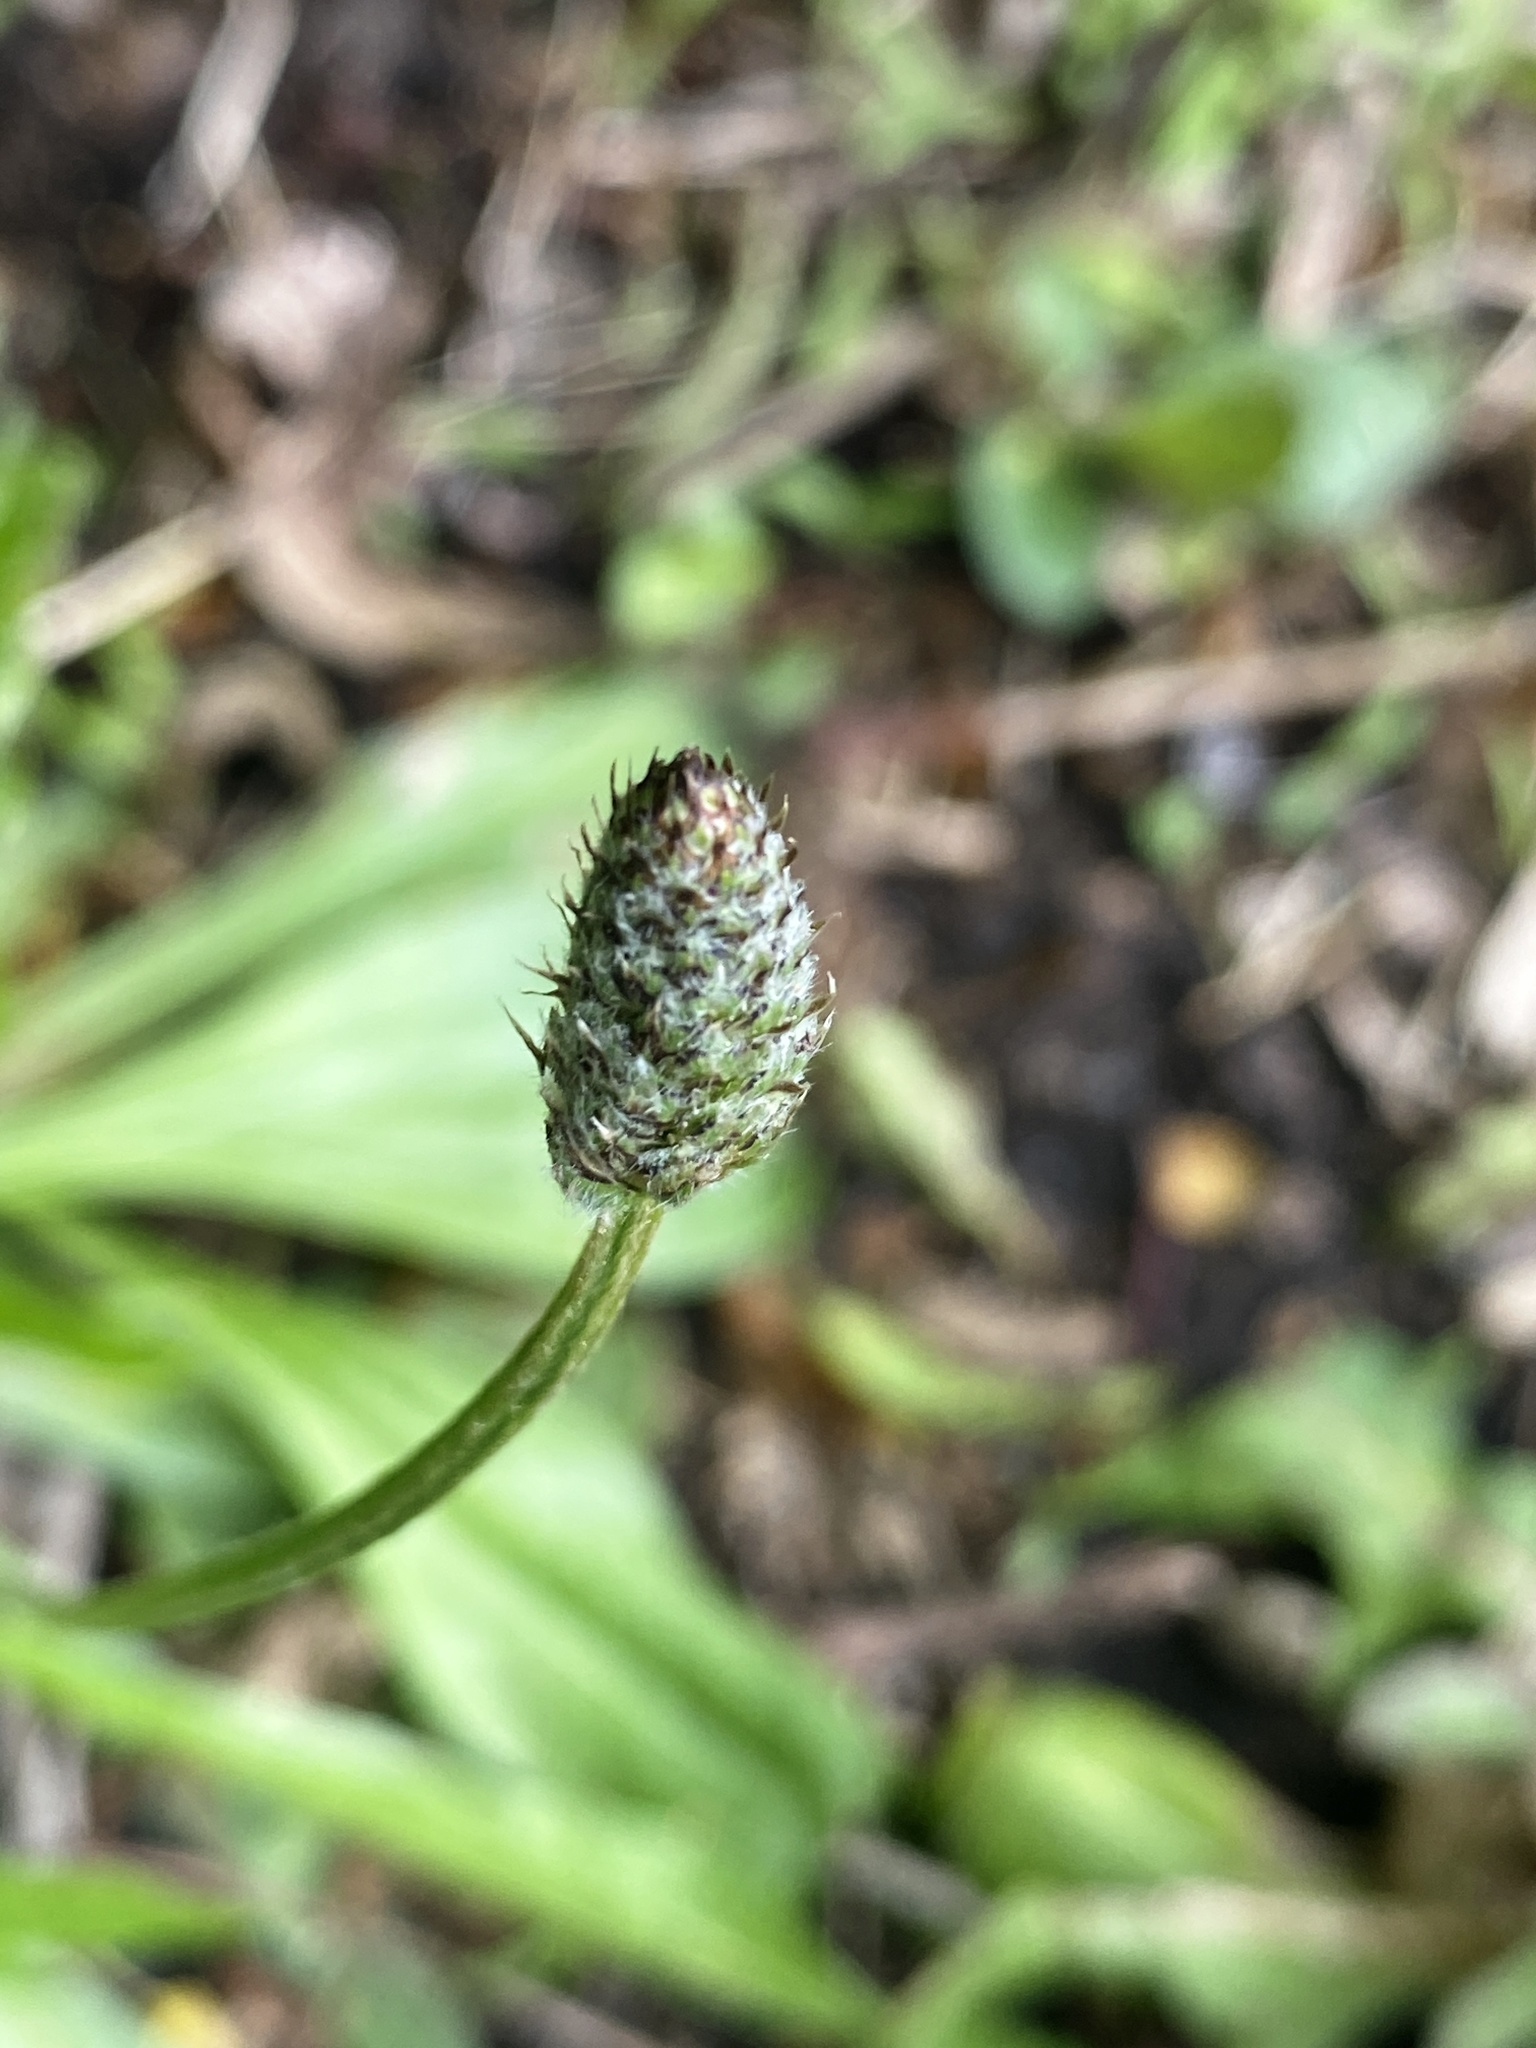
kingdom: Plantae
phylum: Tracheophyta
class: Magnoliopsida
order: Lamiales
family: Plantaginaceae
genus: Plantago
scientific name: Plantago lanceolata
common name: Ribwort plantain
